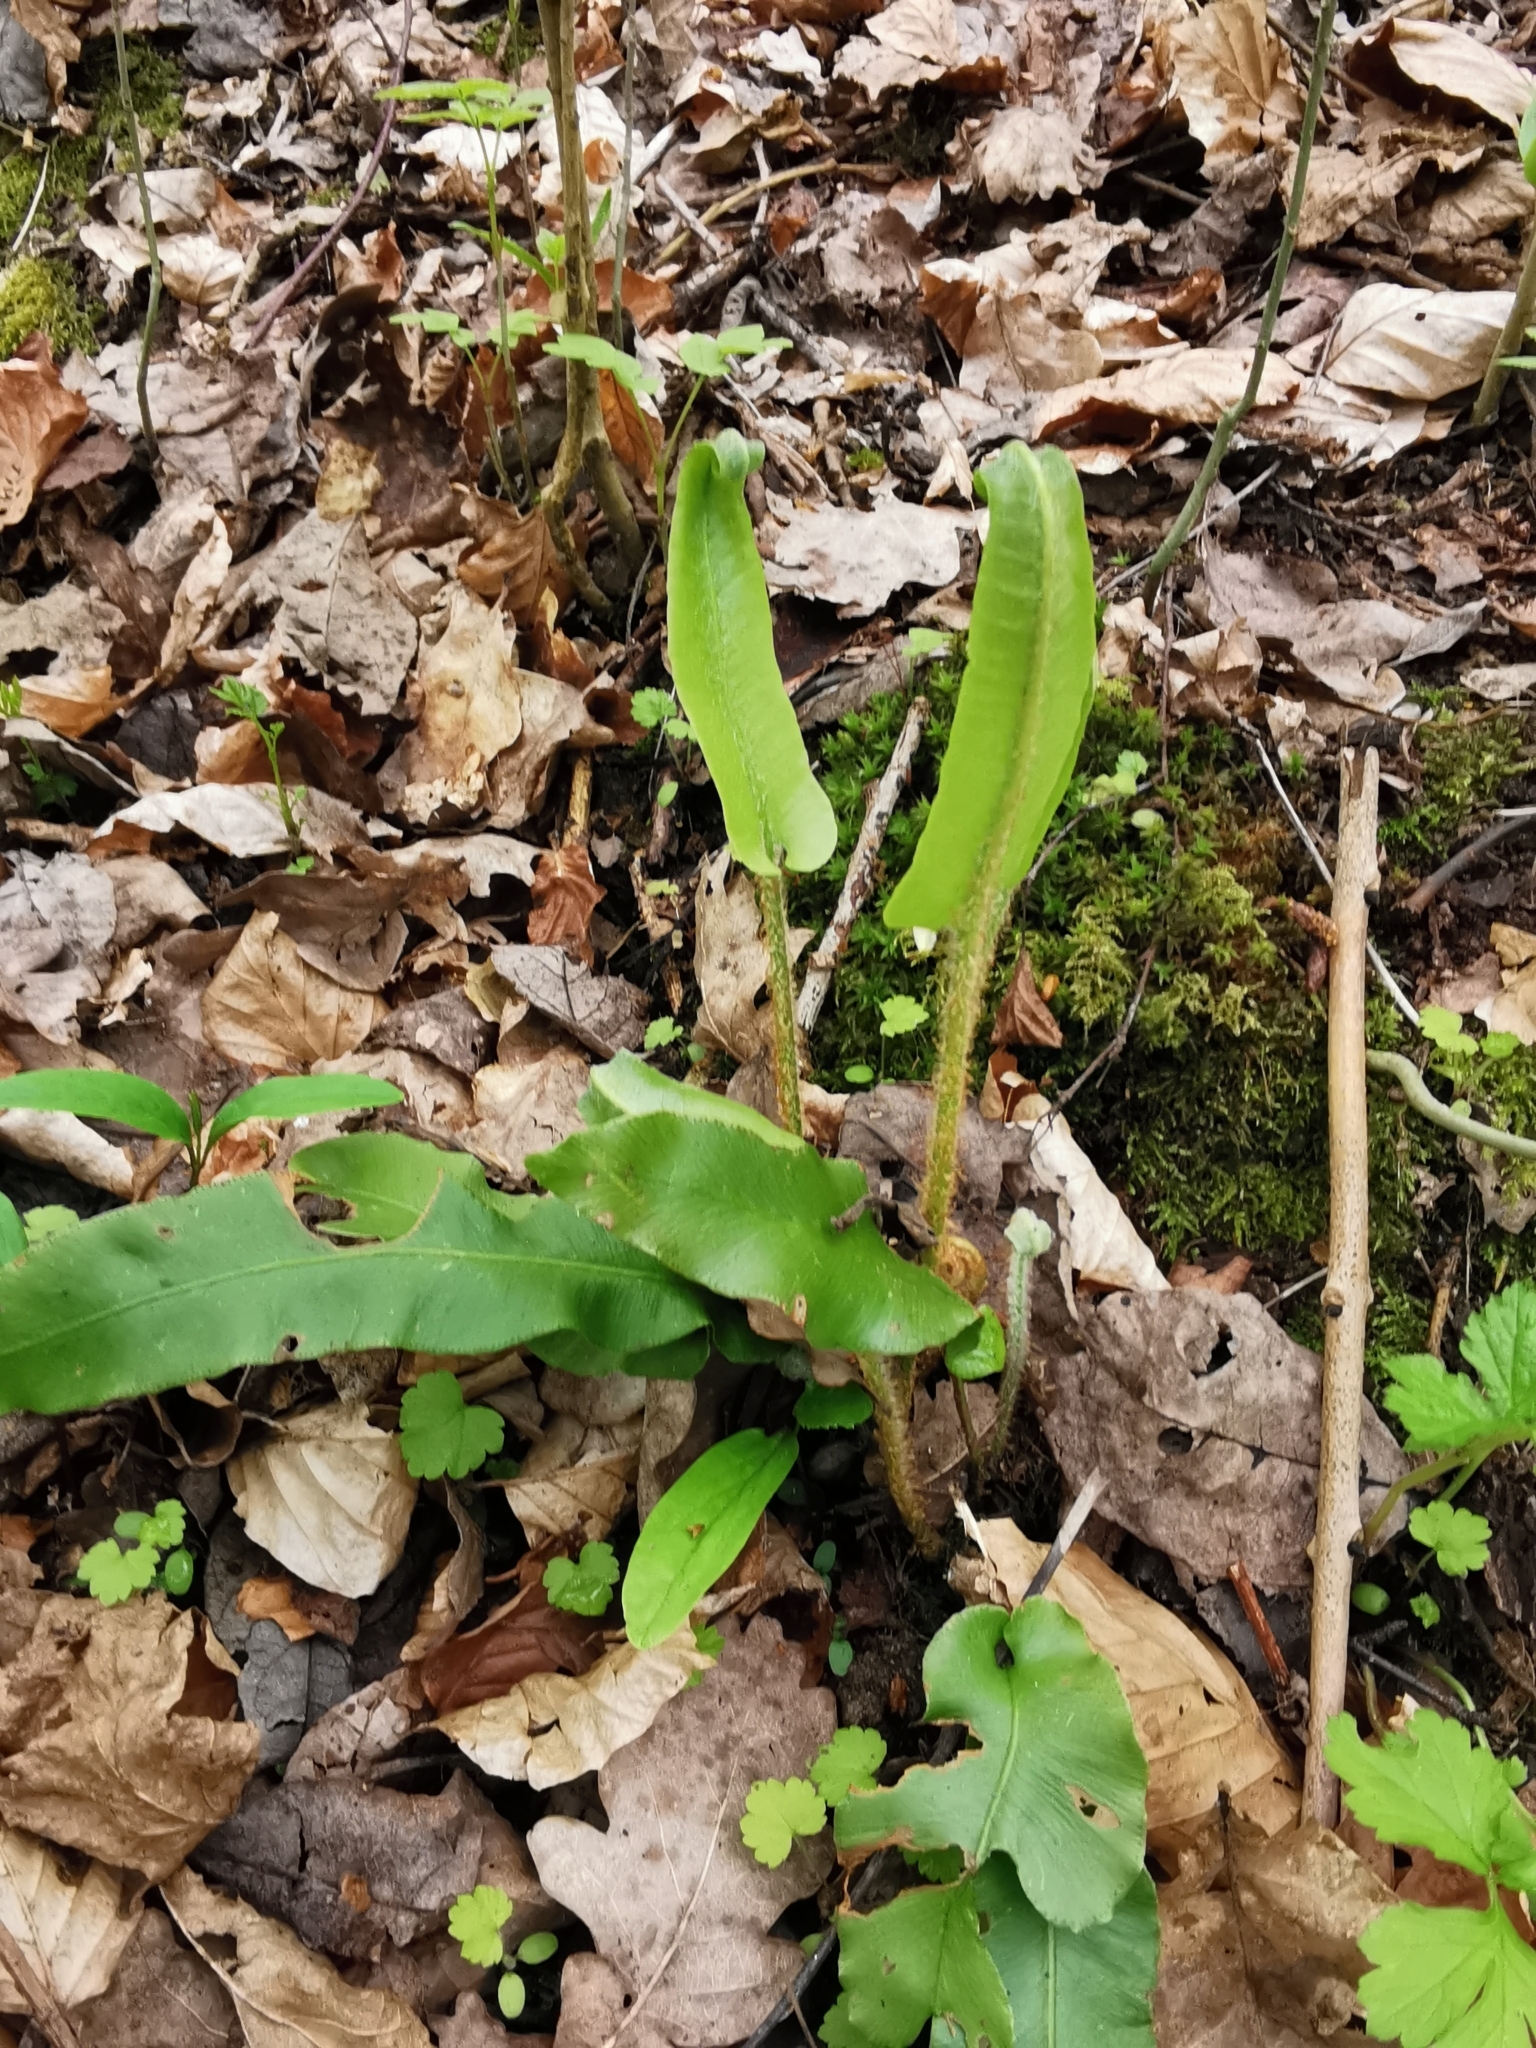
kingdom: Plantae
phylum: Tracheophyta
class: Polypodiopsida
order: Polypodiales
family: Aspleniaceae
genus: Asplenium
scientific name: Asplenium scolopendrium
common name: Hart's-tongue fern
